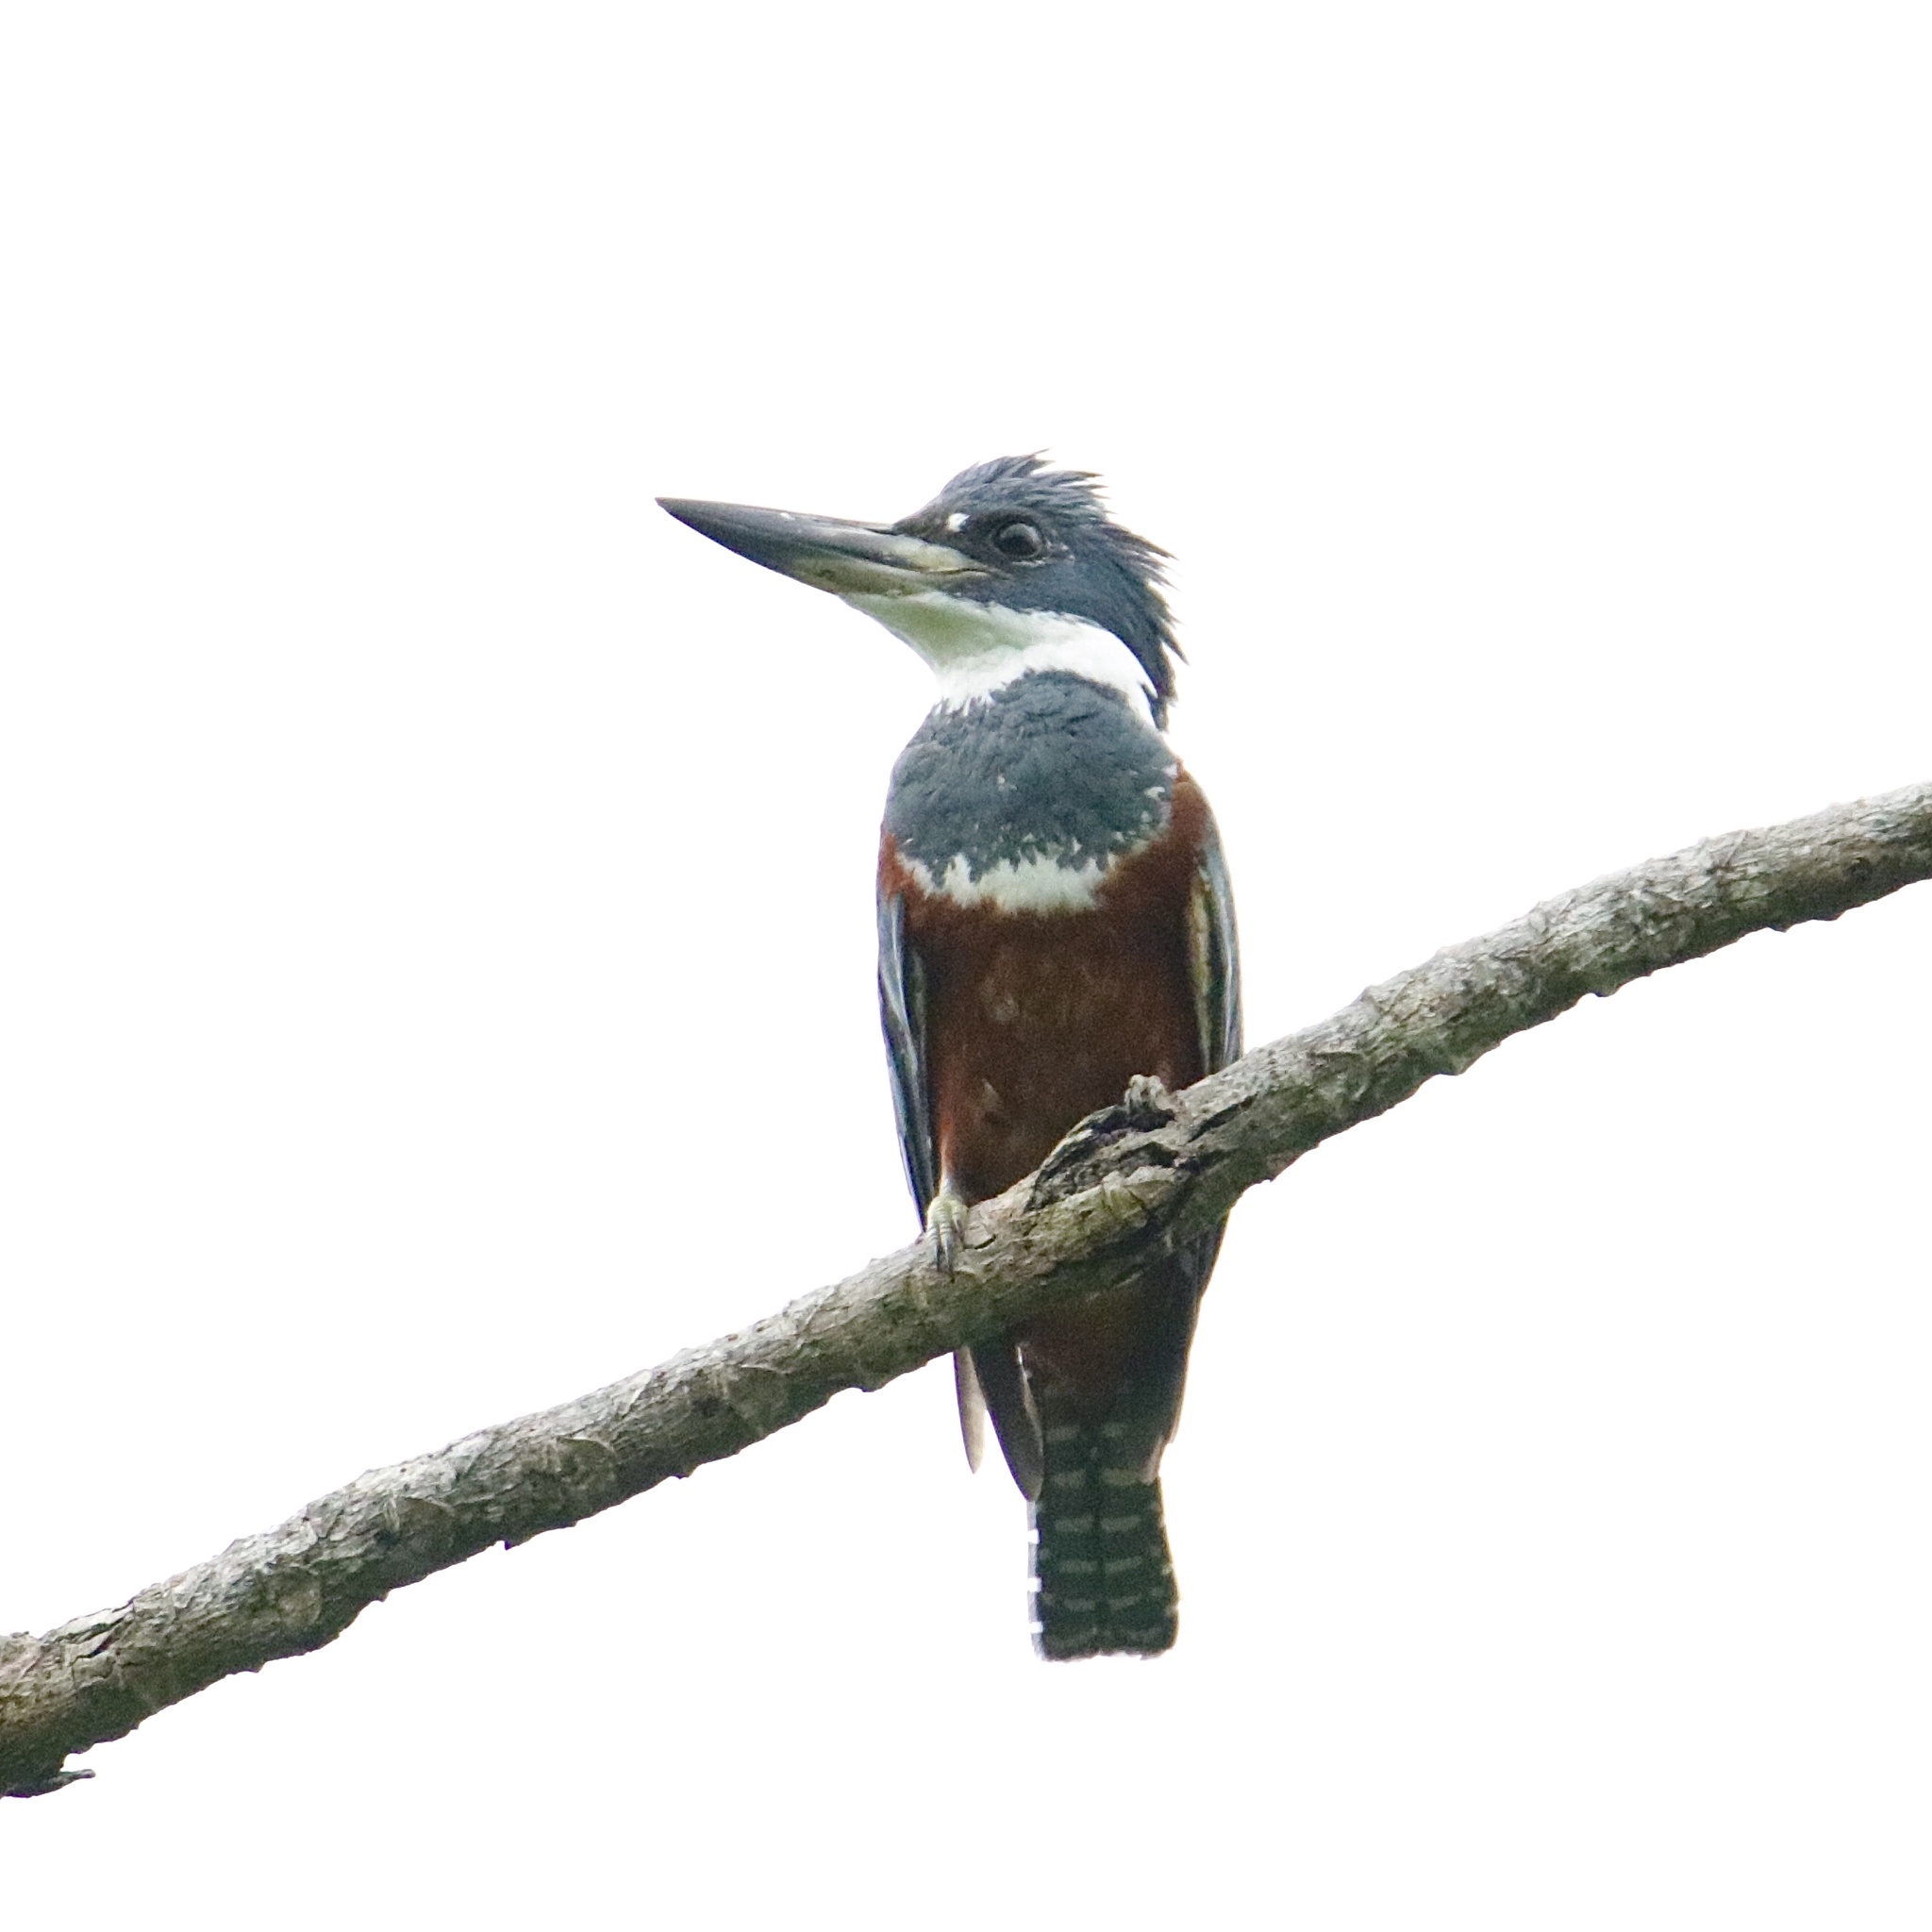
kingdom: Animalia
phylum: Chordata
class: Aves
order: Coraciiformes
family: Alcedinidae
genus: Megaceryle
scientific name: Megaceryle torquata
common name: Ringed kingfisher
